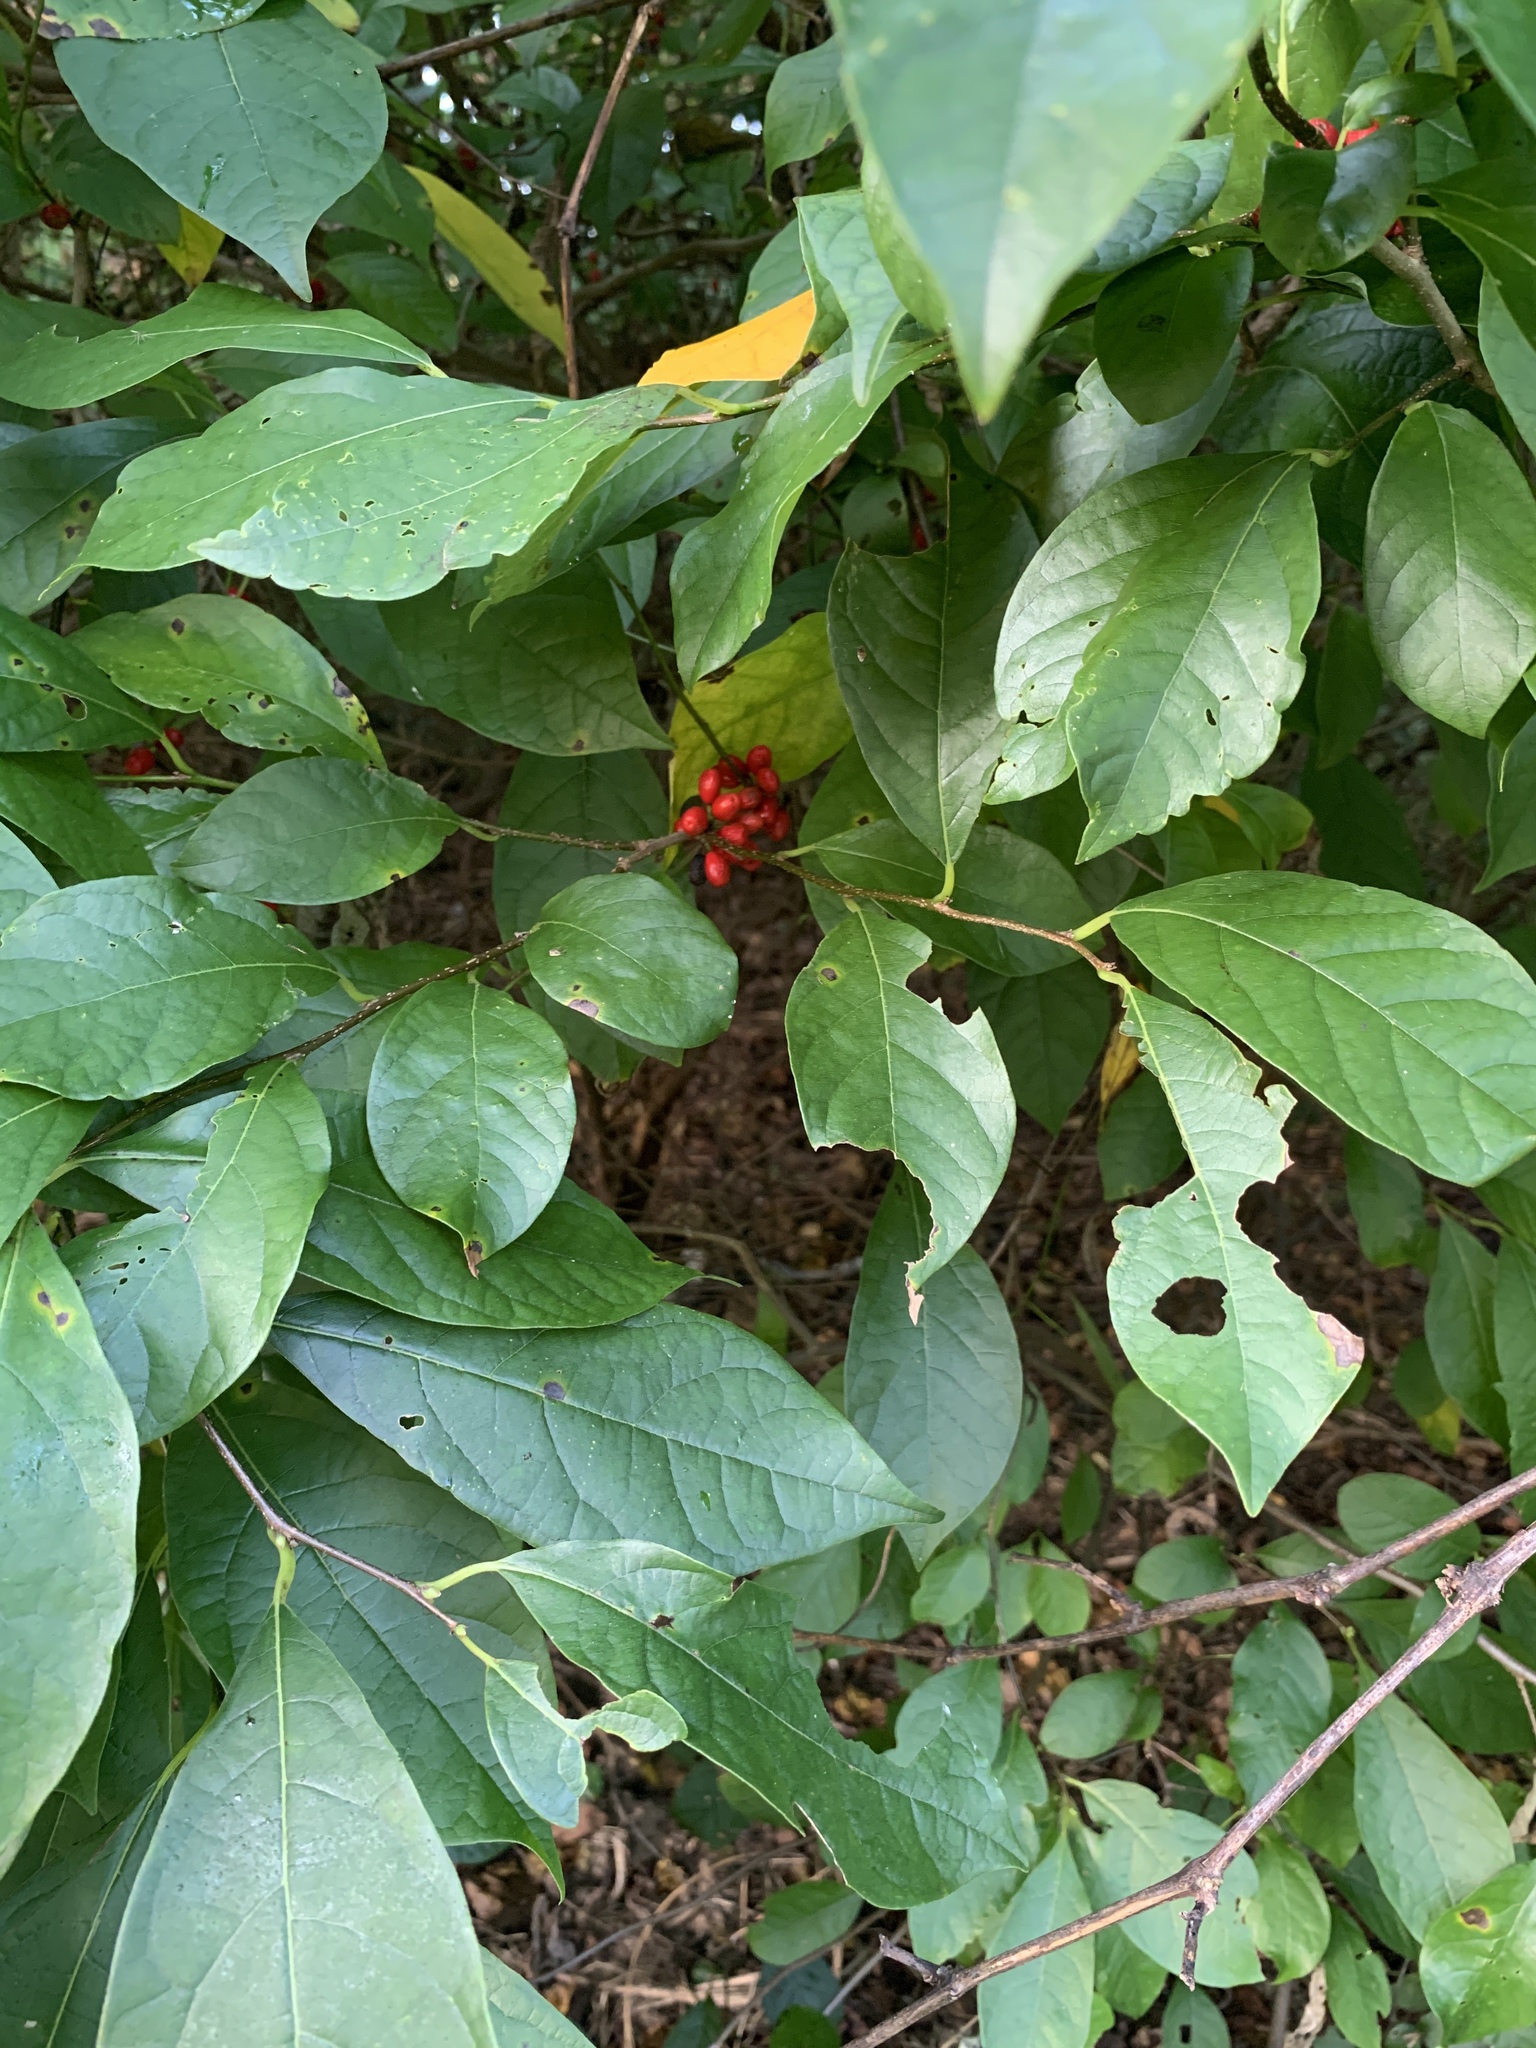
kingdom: Plantae
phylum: Tracheophyta
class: Magnoliopsida
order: Laurales
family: Lauraceae
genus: Lindera
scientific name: Lindera benzoin
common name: Spicebush
